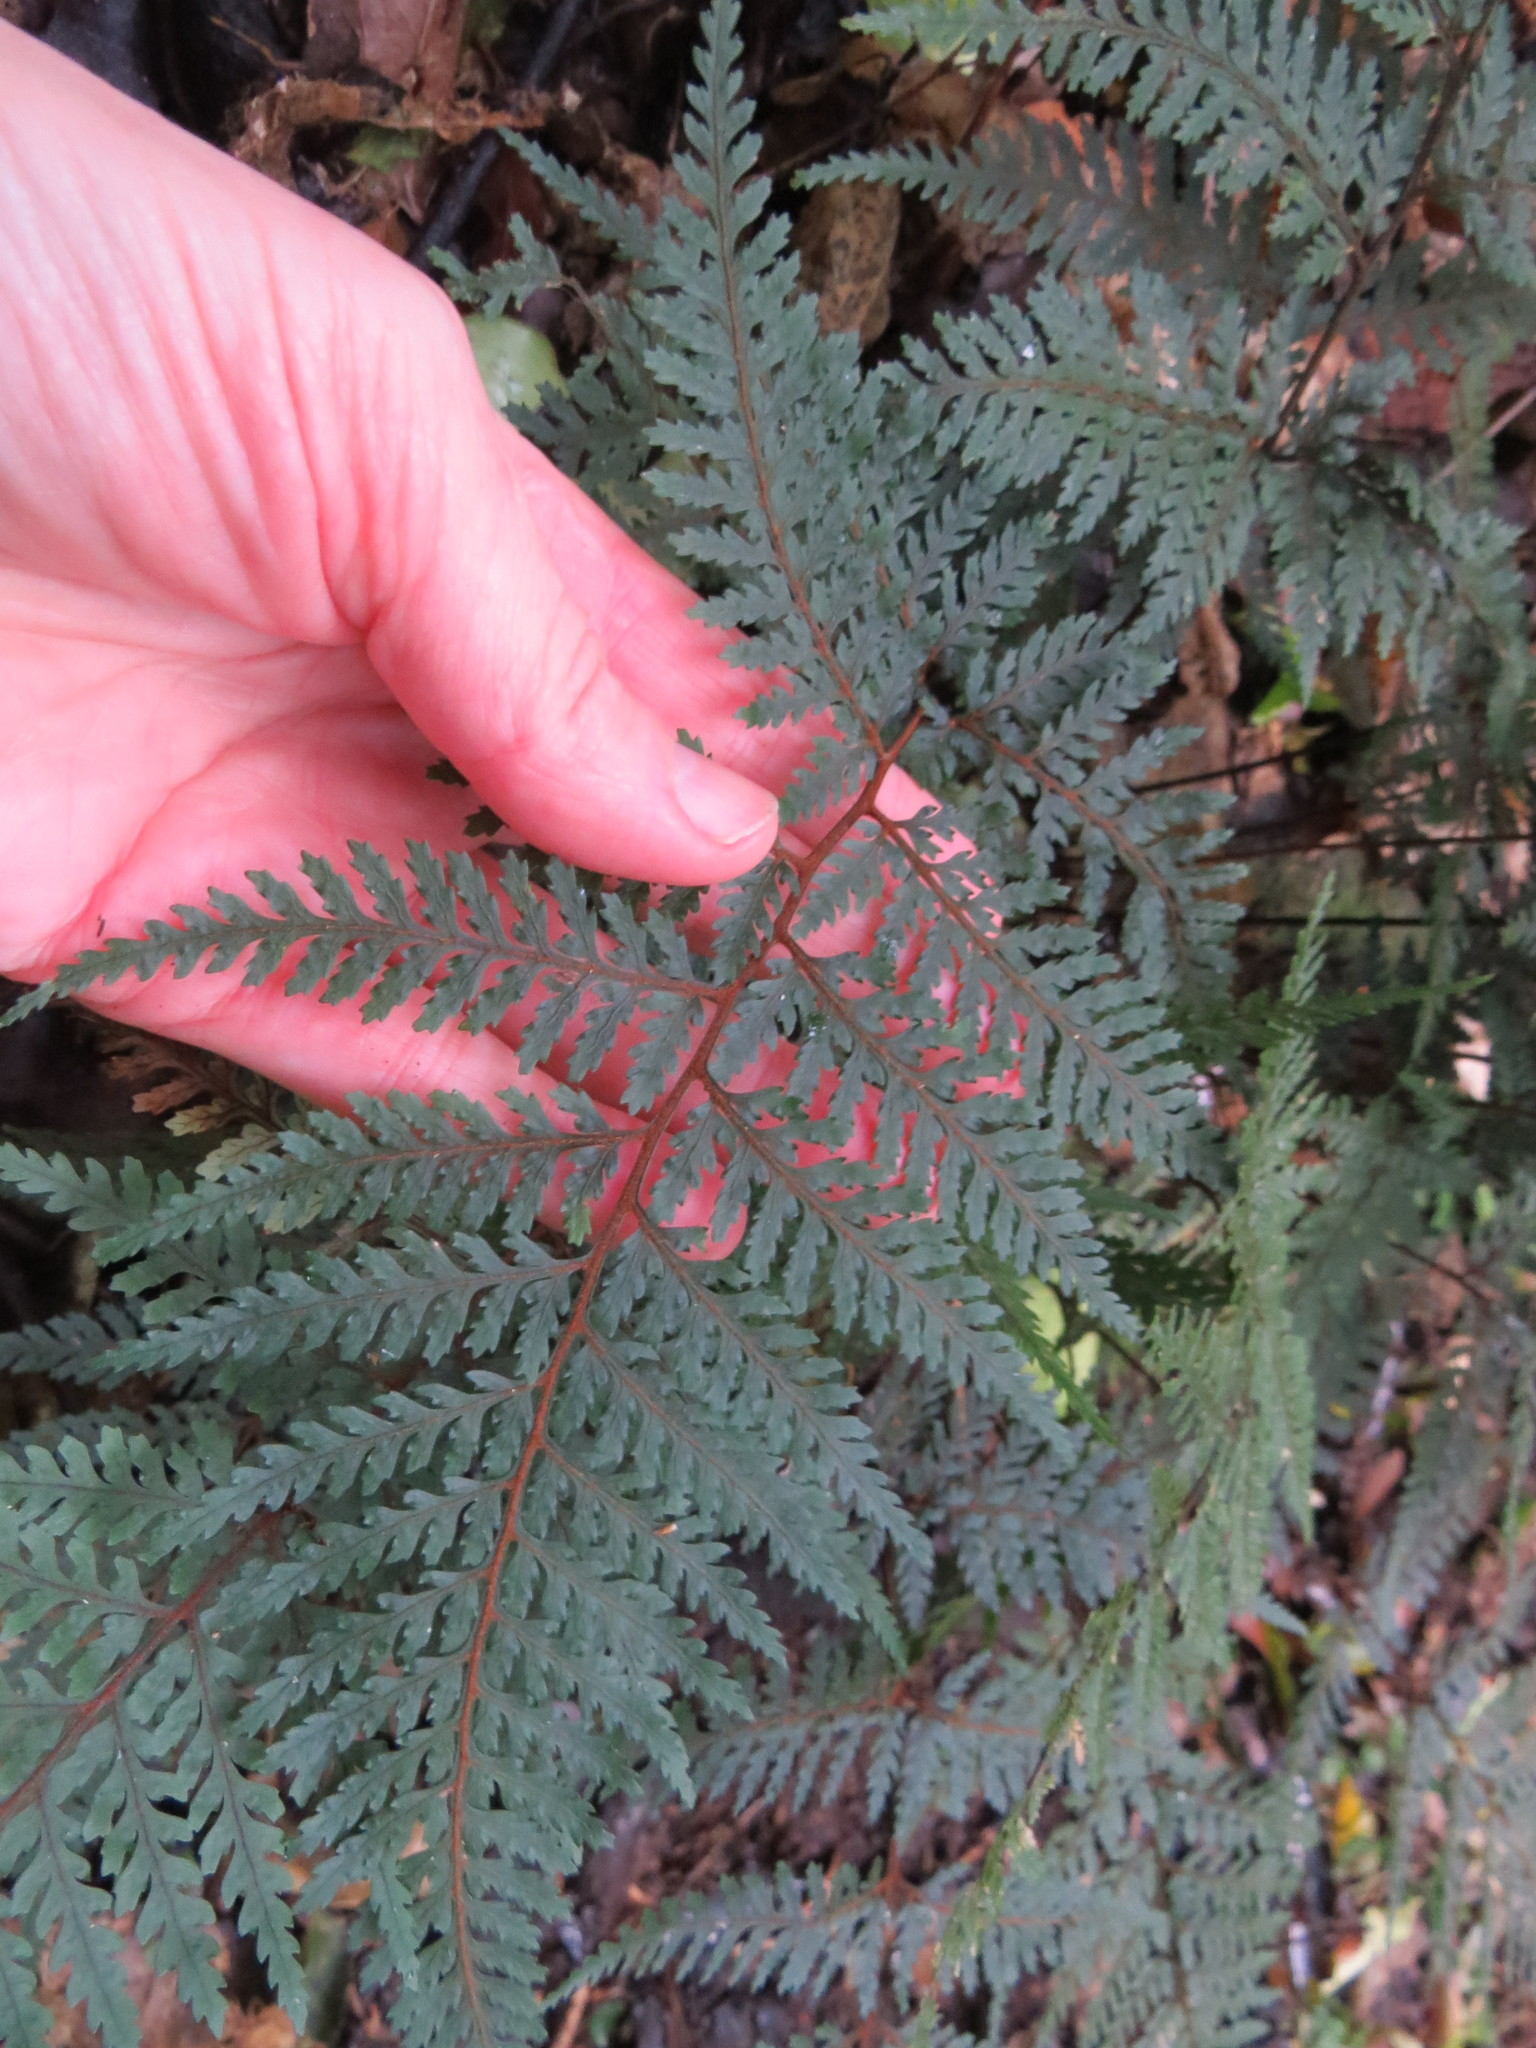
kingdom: Plantae
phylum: Tracheophyta
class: Polypodiopsida
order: Polypodiales
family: Dryopteridaceae
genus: Parapolystichum
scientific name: Parapolystichum glabellum
